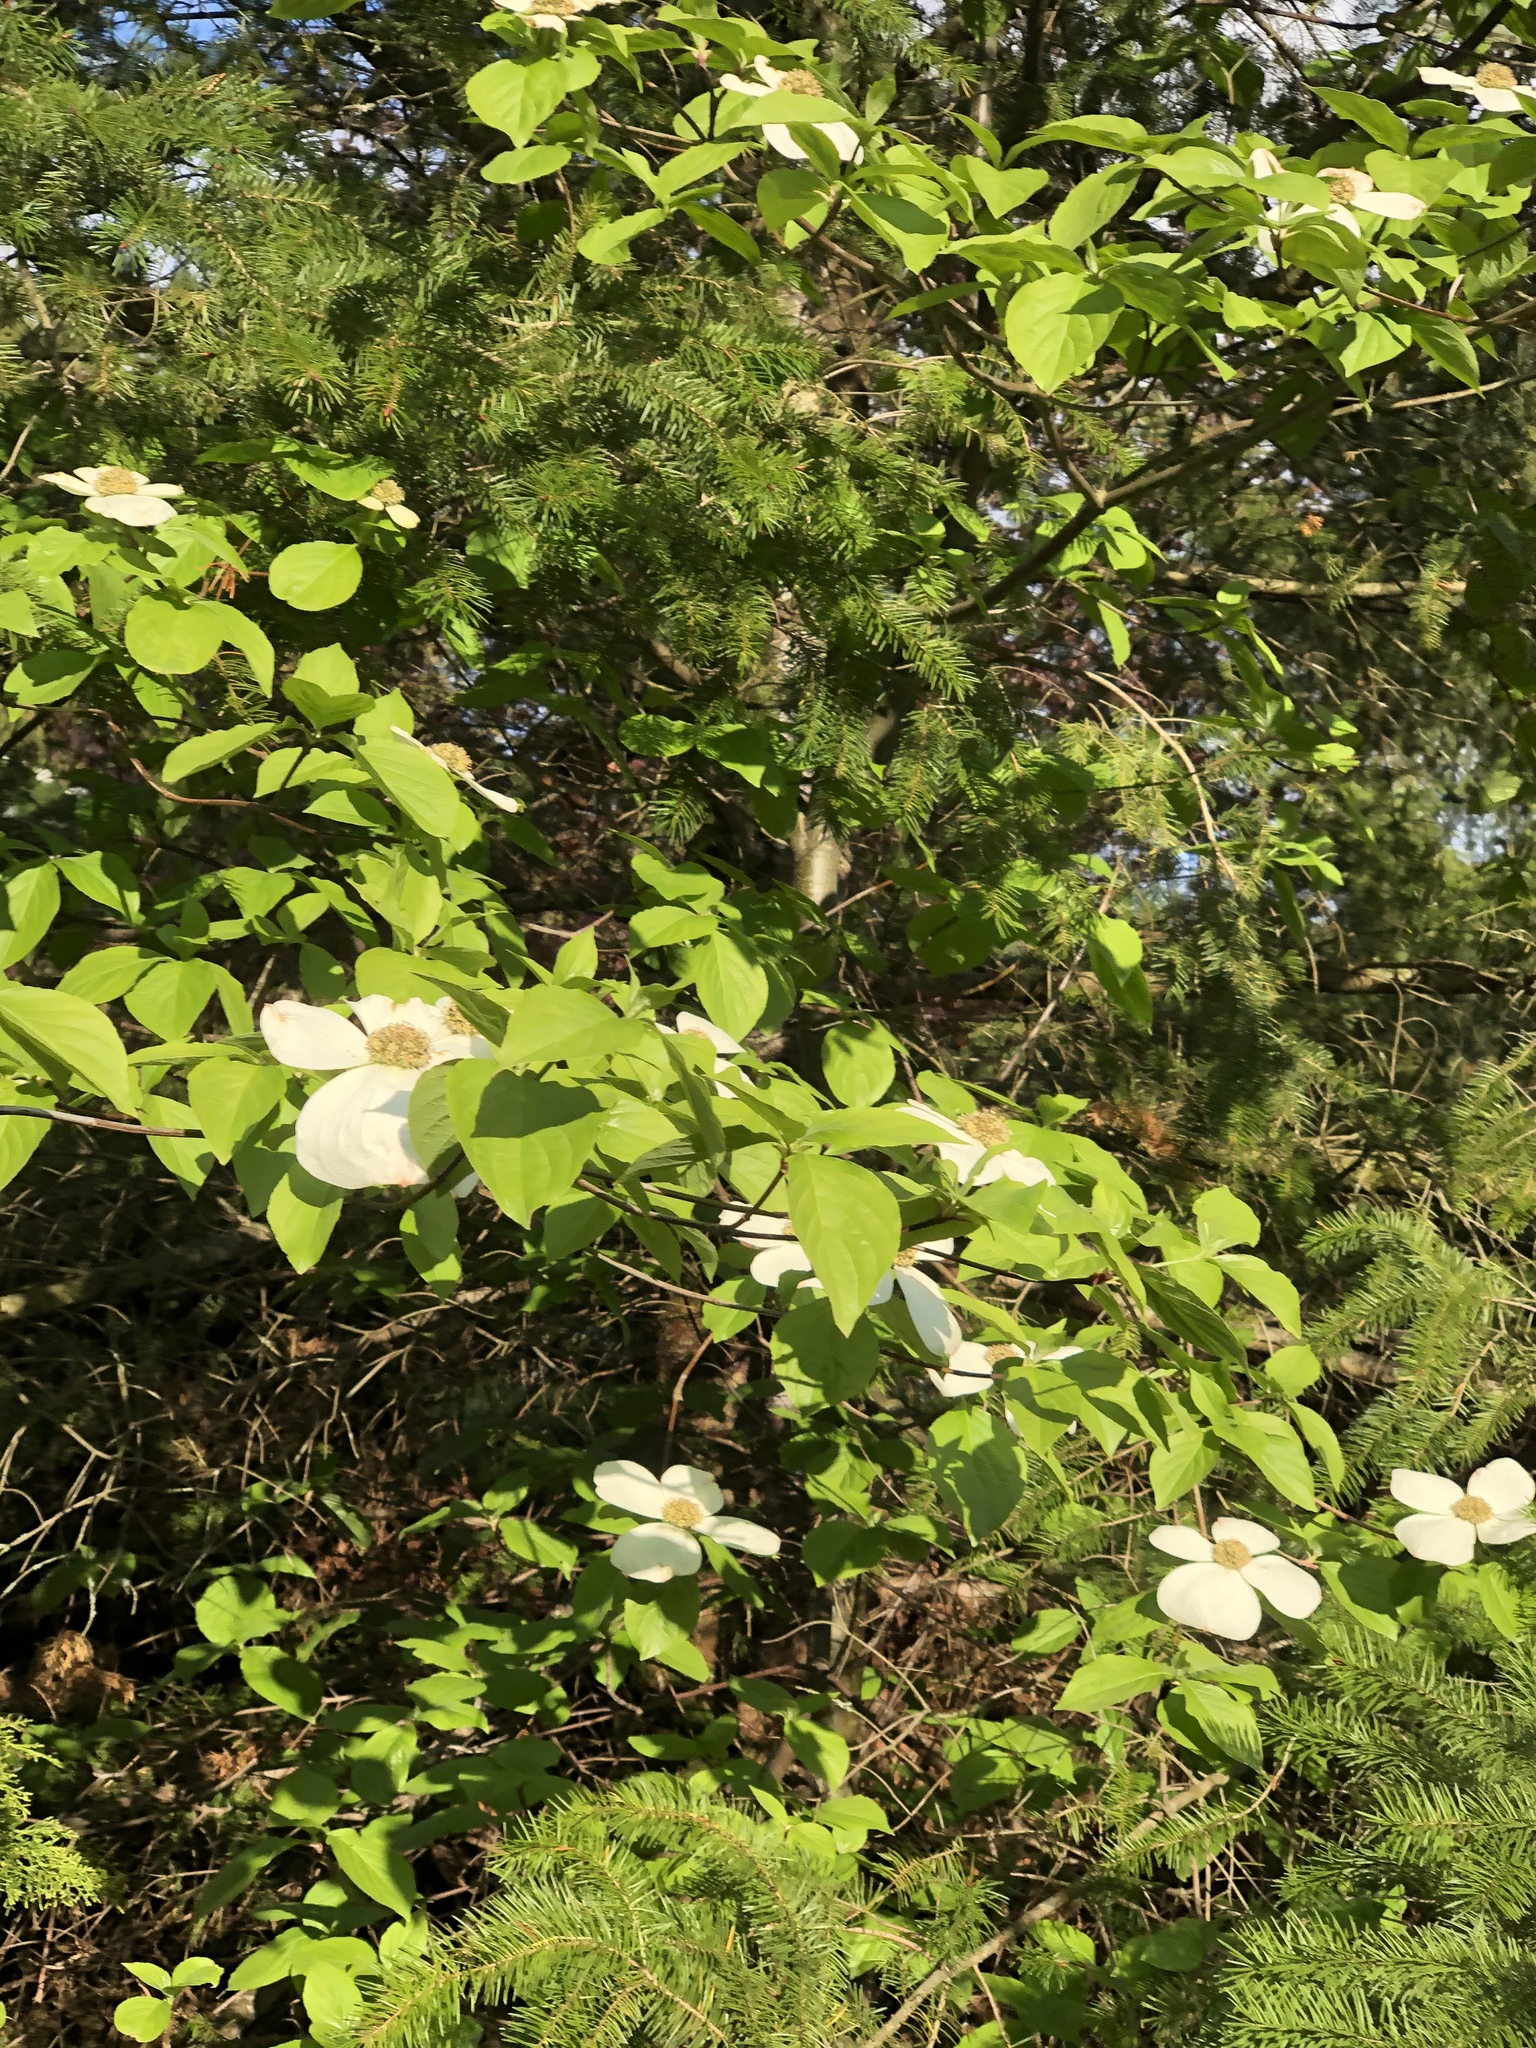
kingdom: Plantae
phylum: Tracheophyta
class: Magnoliopsida
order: Cornales
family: Cornaceae
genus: Cornus
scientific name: Cornus nuttallii
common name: Pacific dogwood
